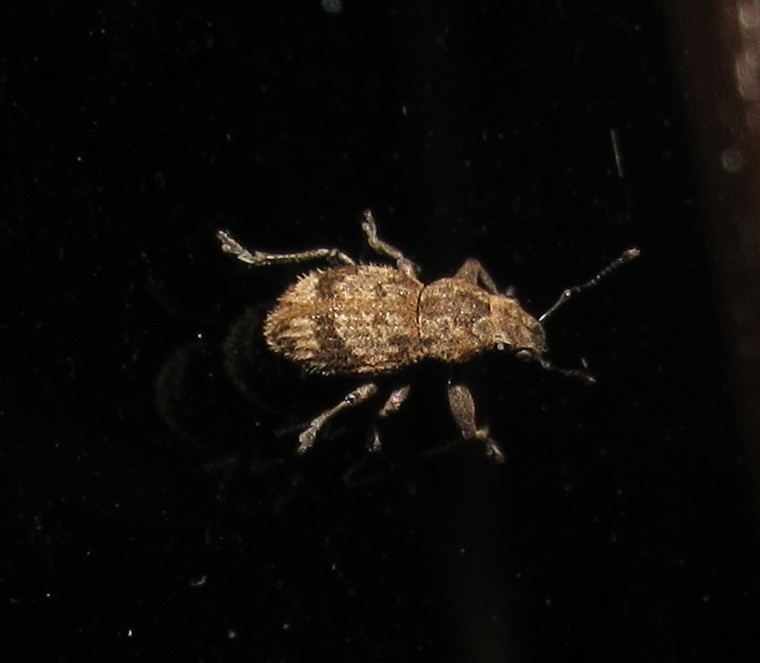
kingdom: Animalia
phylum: Arthropoda
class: Insecta
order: Coleoptera
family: Curculionidae
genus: Pantomorus
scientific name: Pantomorus
